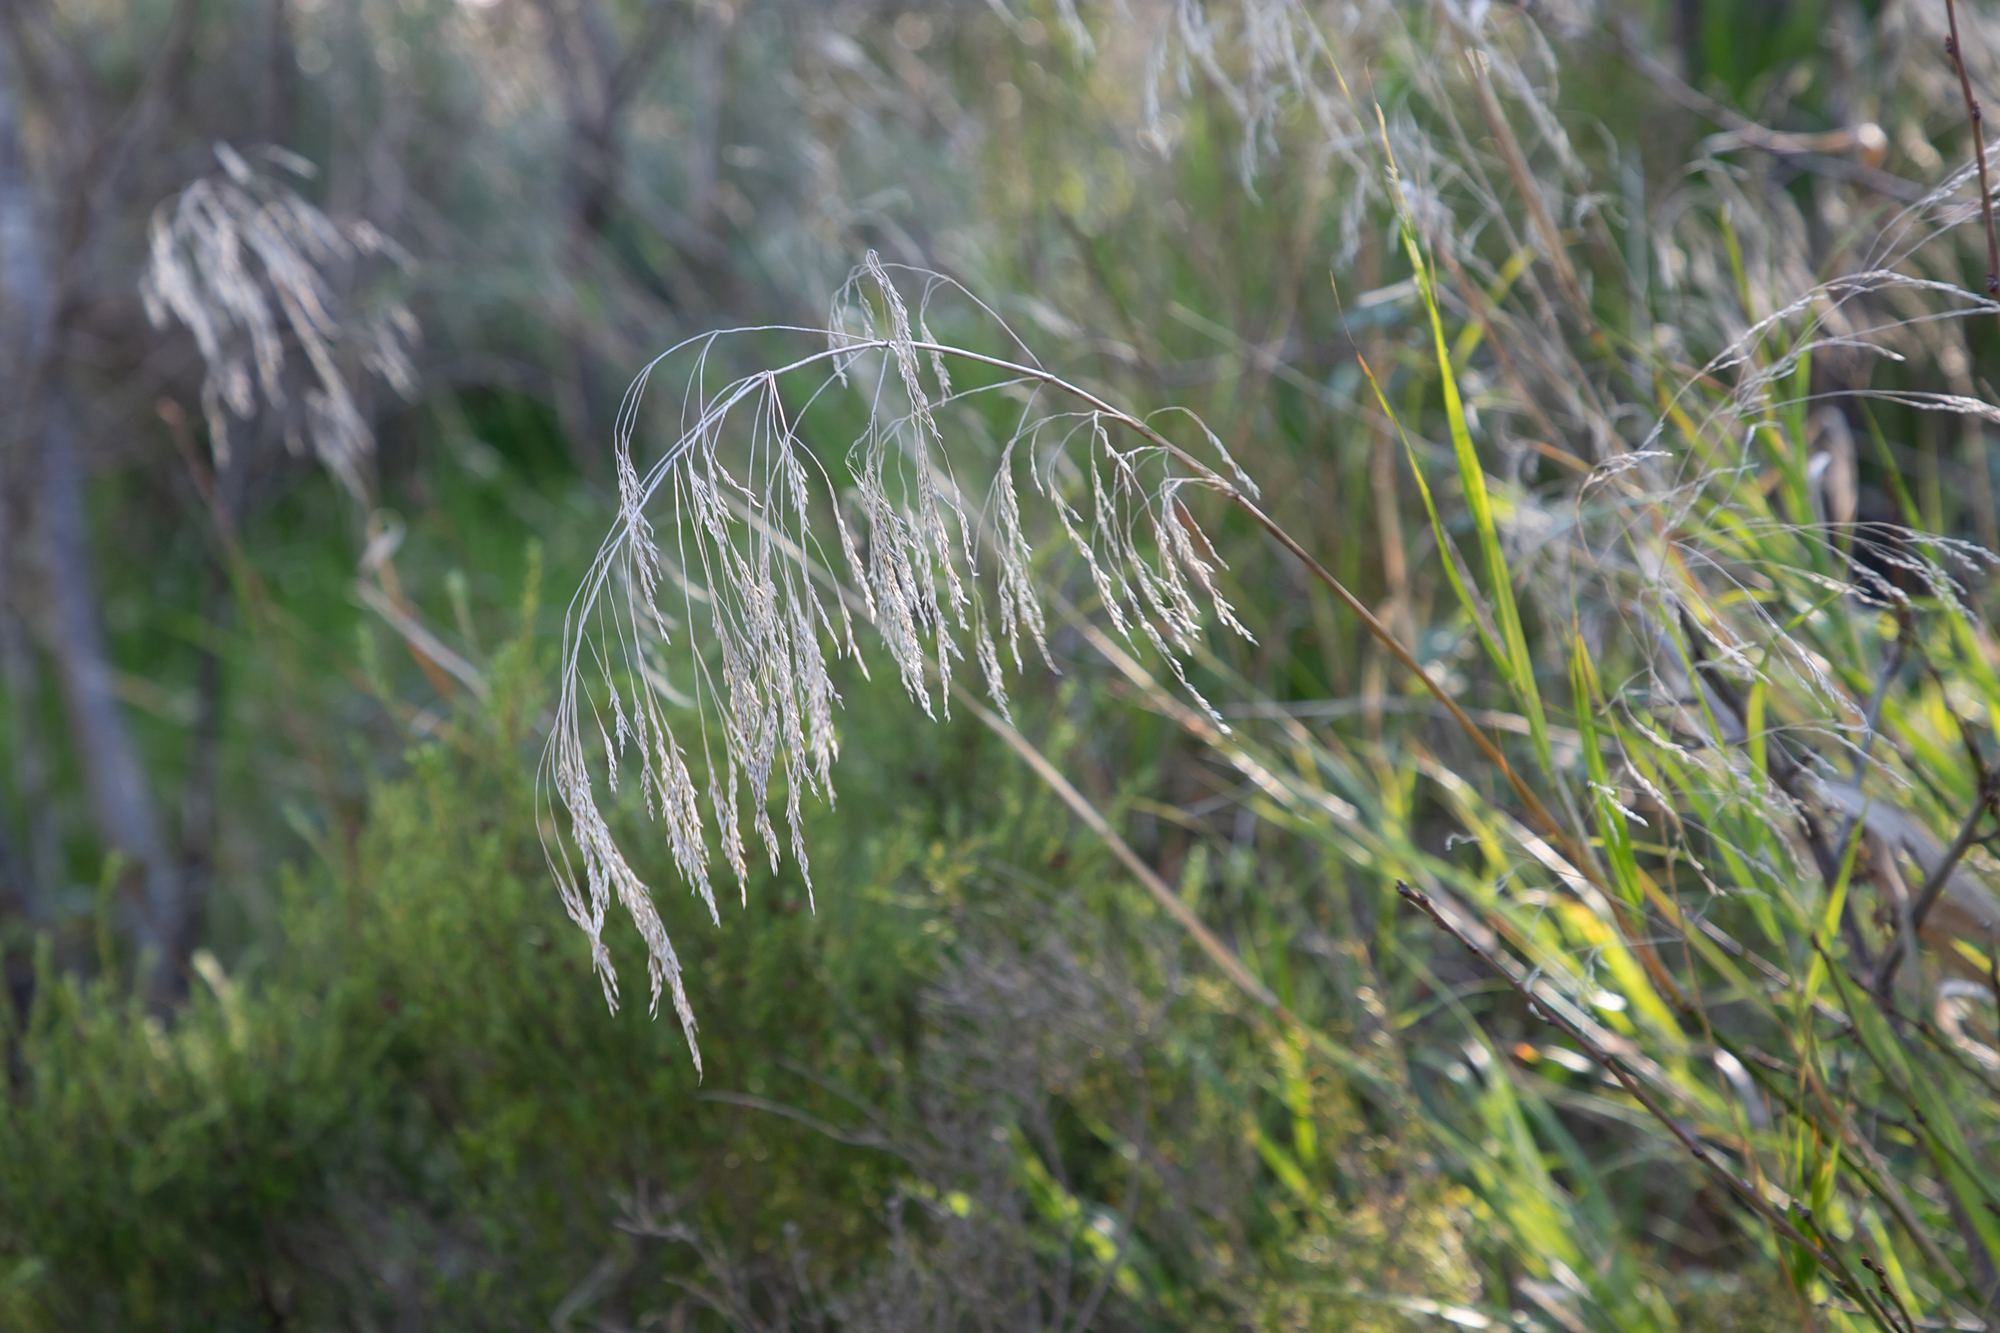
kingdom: Plantae
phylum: Tracheophyta
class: Liliopsida
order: Poales
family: Poaceae
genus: Oloptum
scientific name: Oloptum miliaceum
